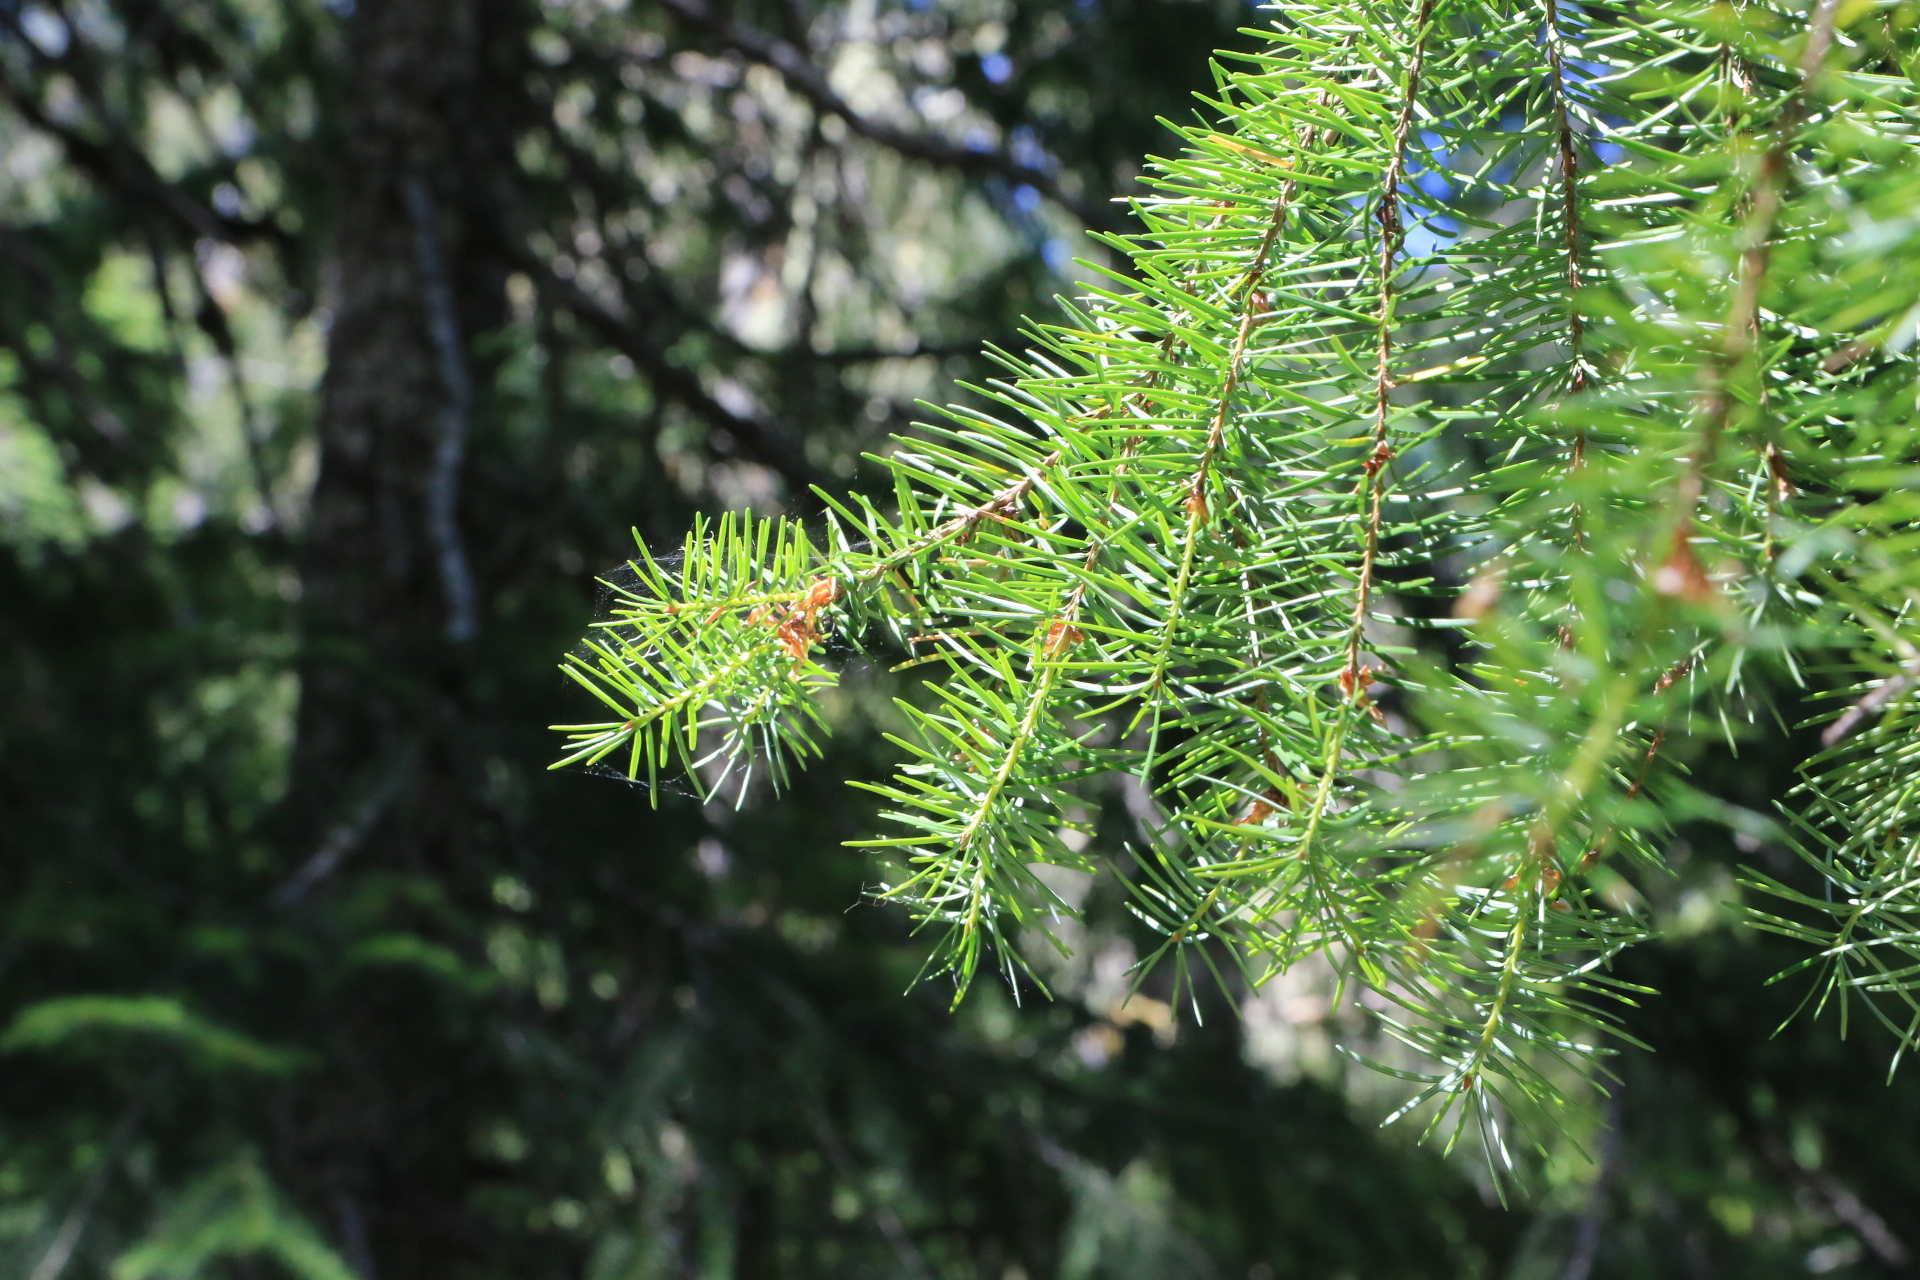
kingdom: Plantae
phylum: Tracheophyta
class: Pinopsida
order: Pinales
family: Pinaceae
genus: Pseudotsuga
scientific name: Pseudotsuga menziesii
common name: Douglas fir
